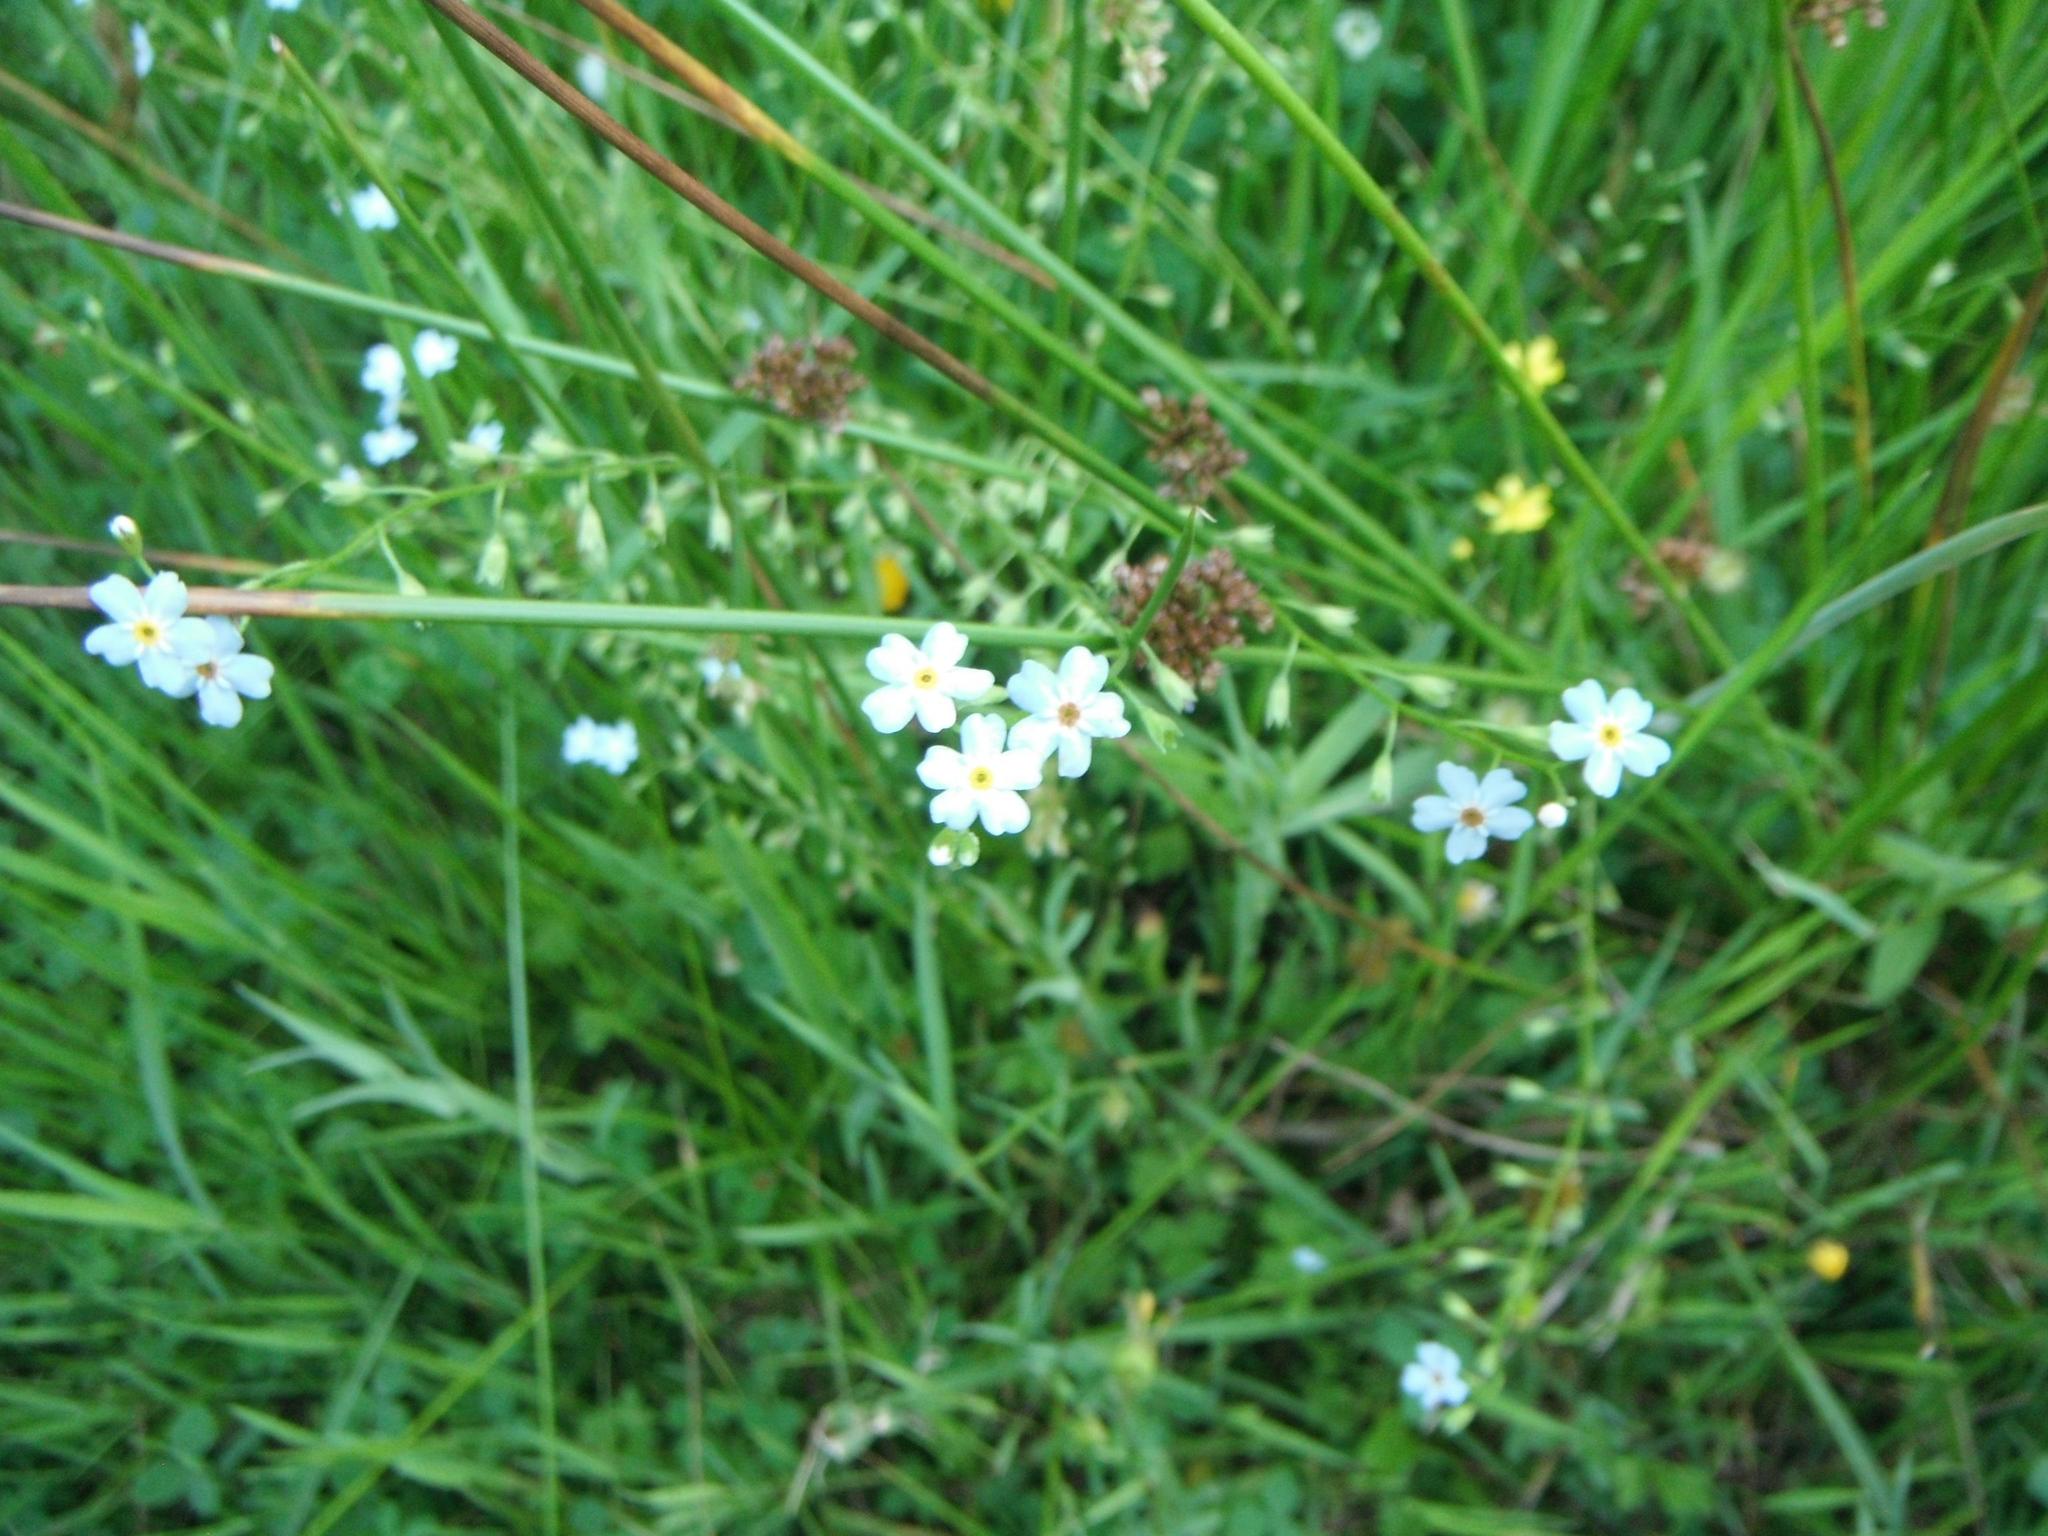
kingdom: Plantae
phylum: Tracheophyta
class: Magnoliopsida
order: Boraginales
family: Boraginaceae
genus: Myosotis
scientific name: Myosotis scorpioides
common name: Water forget-me-not
